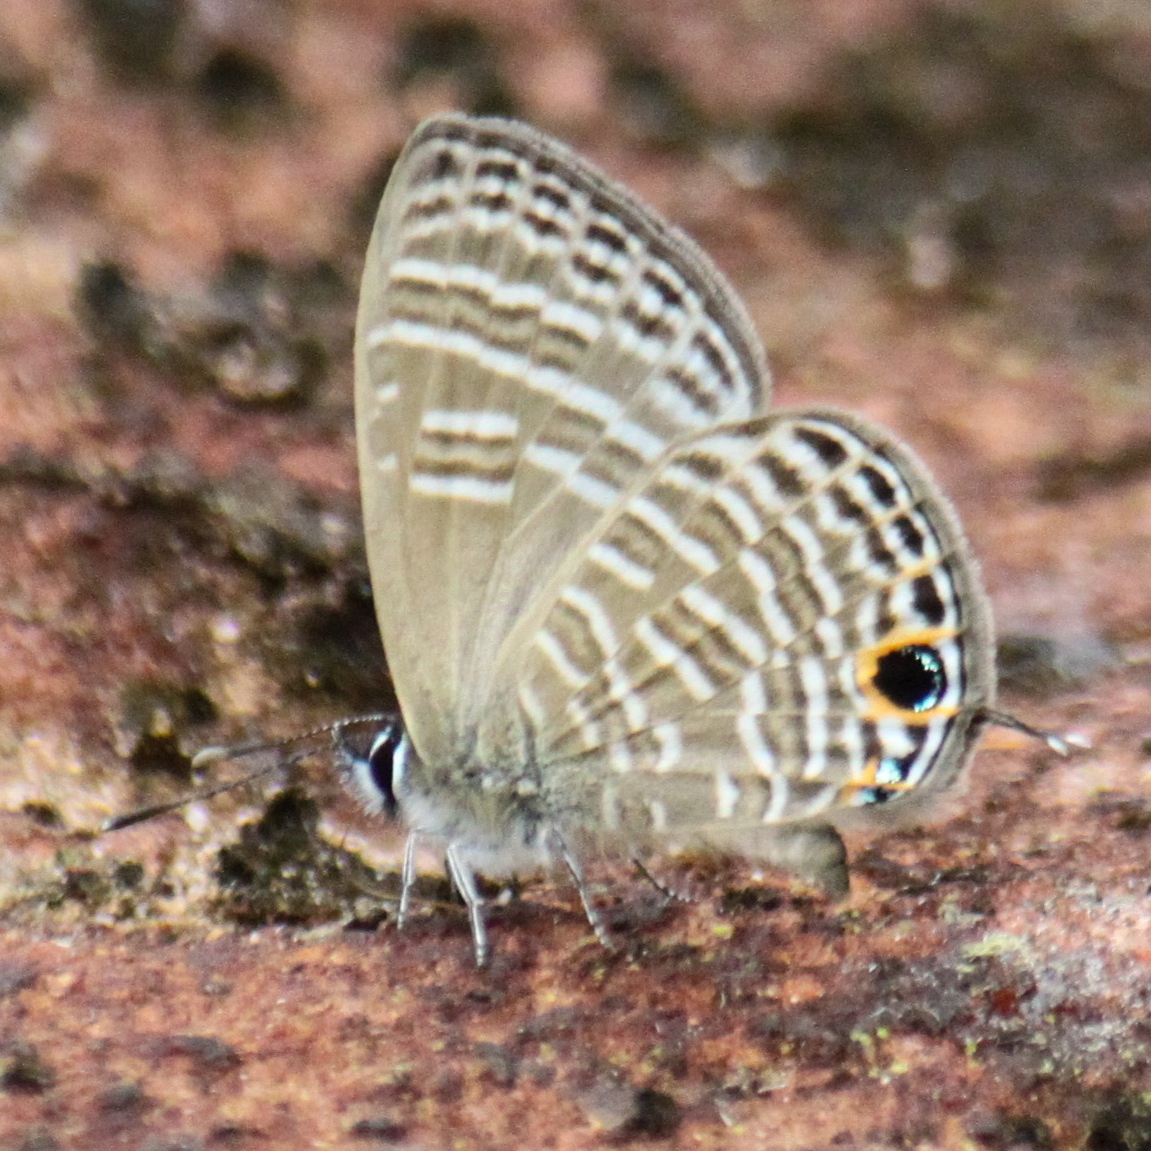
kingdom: Animalia
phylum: Arthropoda
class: Insecta
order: Lepidoptera
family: Lycaenidae
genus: Nacaduba
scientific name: Nacaduba pavana
